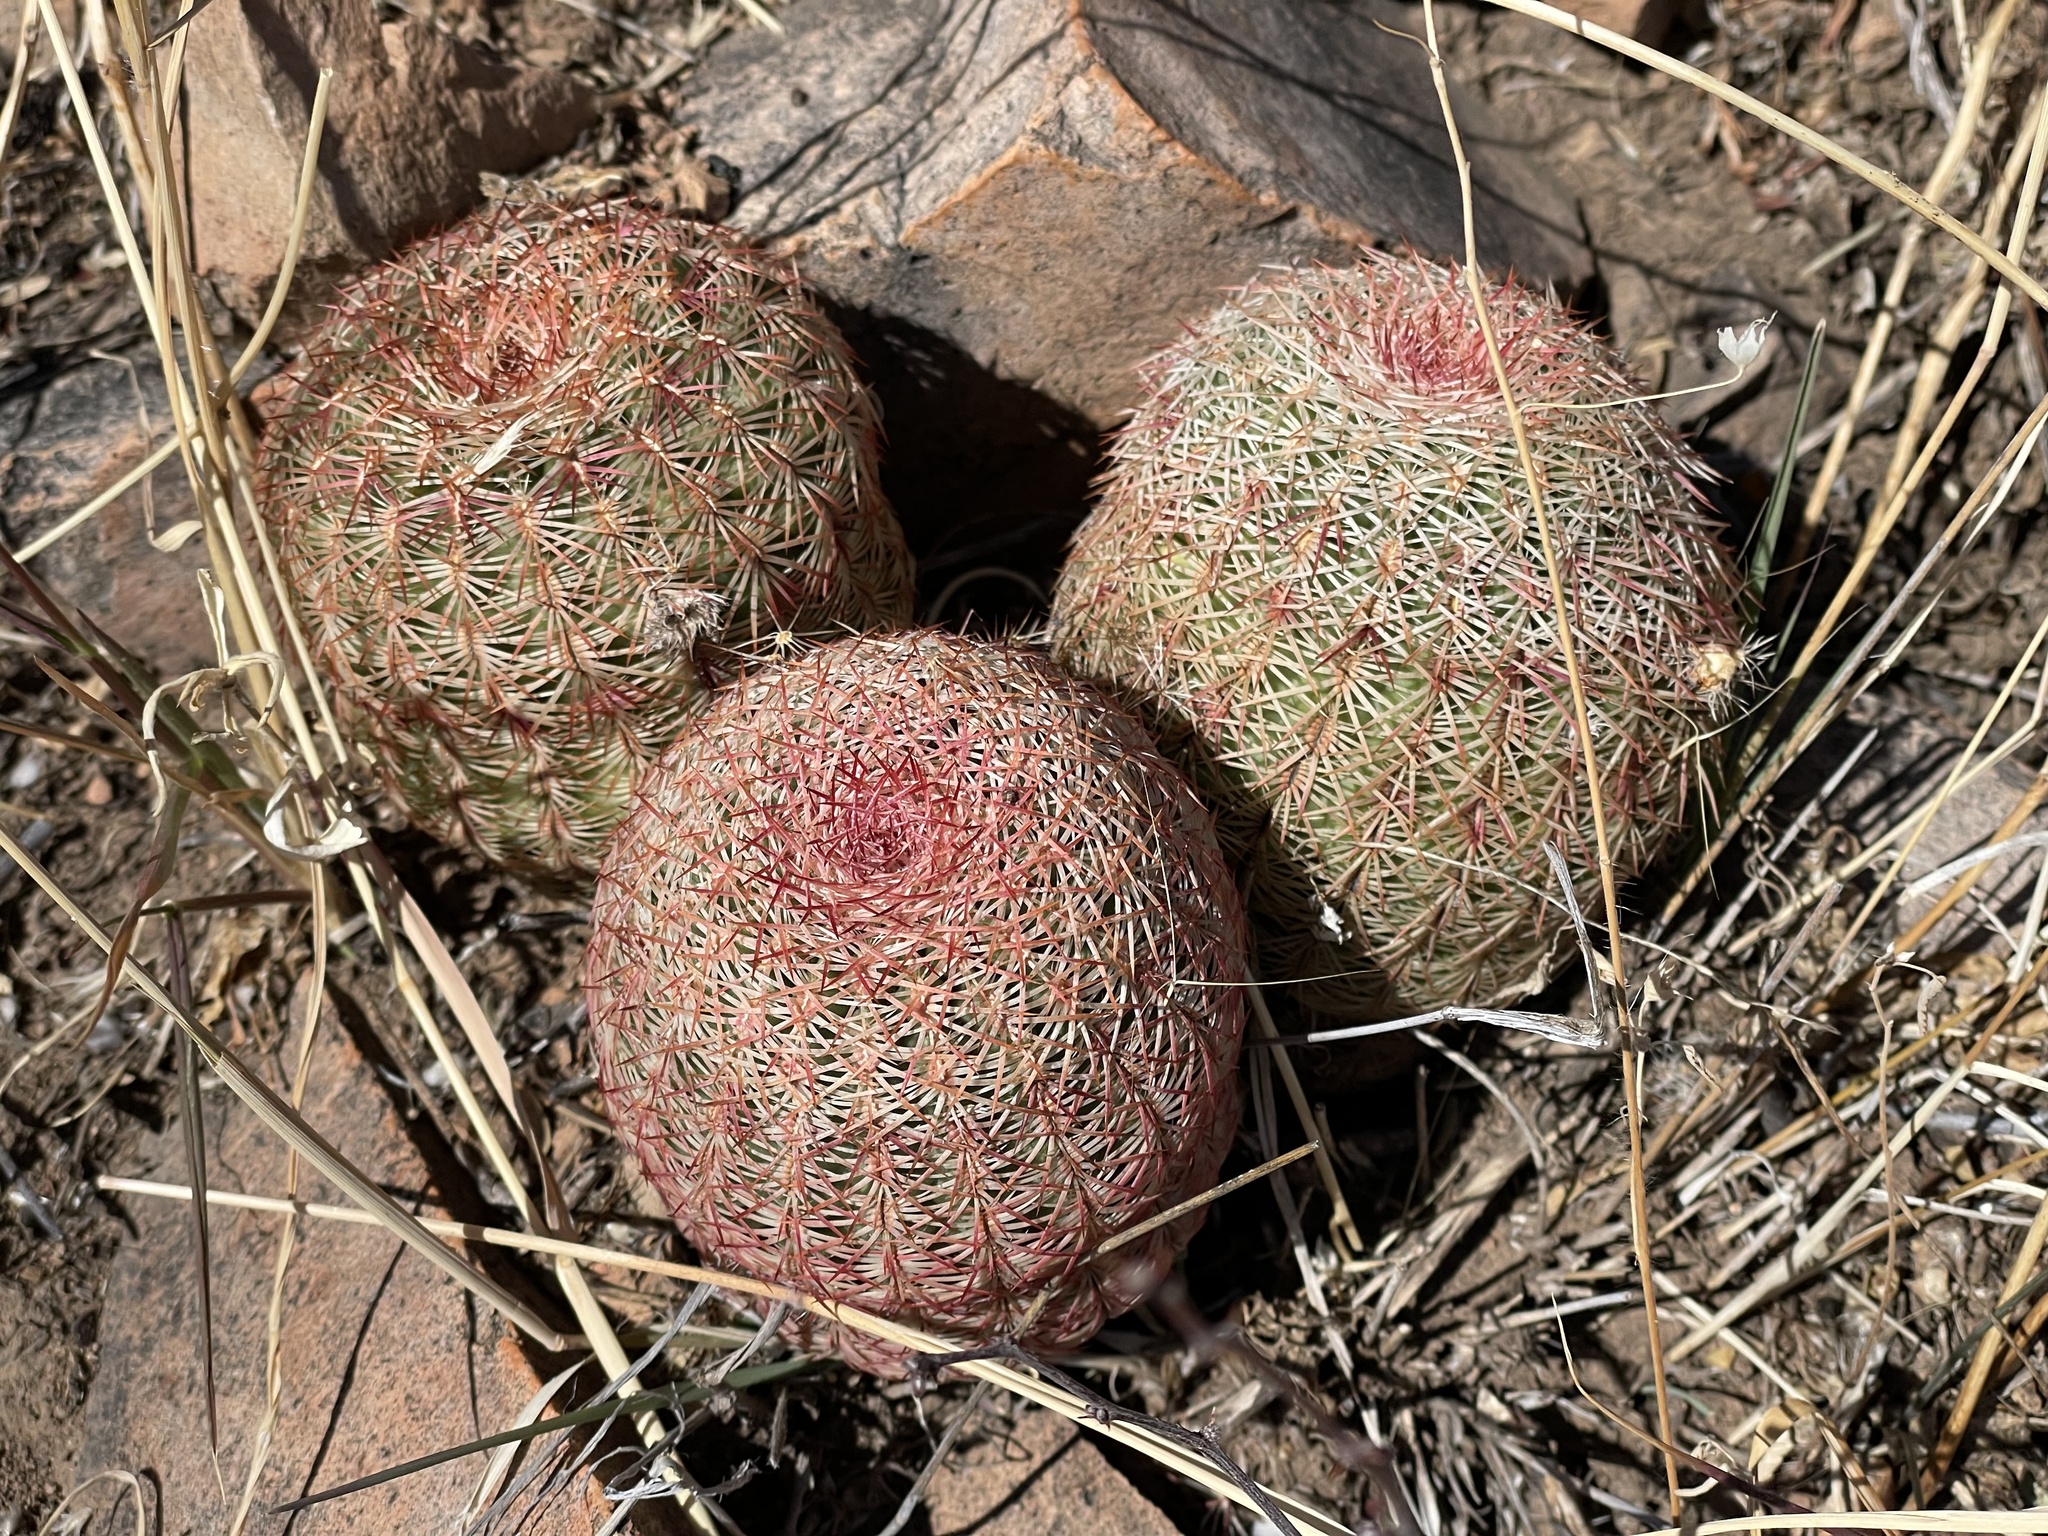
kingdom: Plantae
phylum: Tracheophyta
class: Magnoliopsida
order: Caryophyllales
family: Cactaceae
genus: Echinocereus
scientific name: Echinocereus rigidissimus
